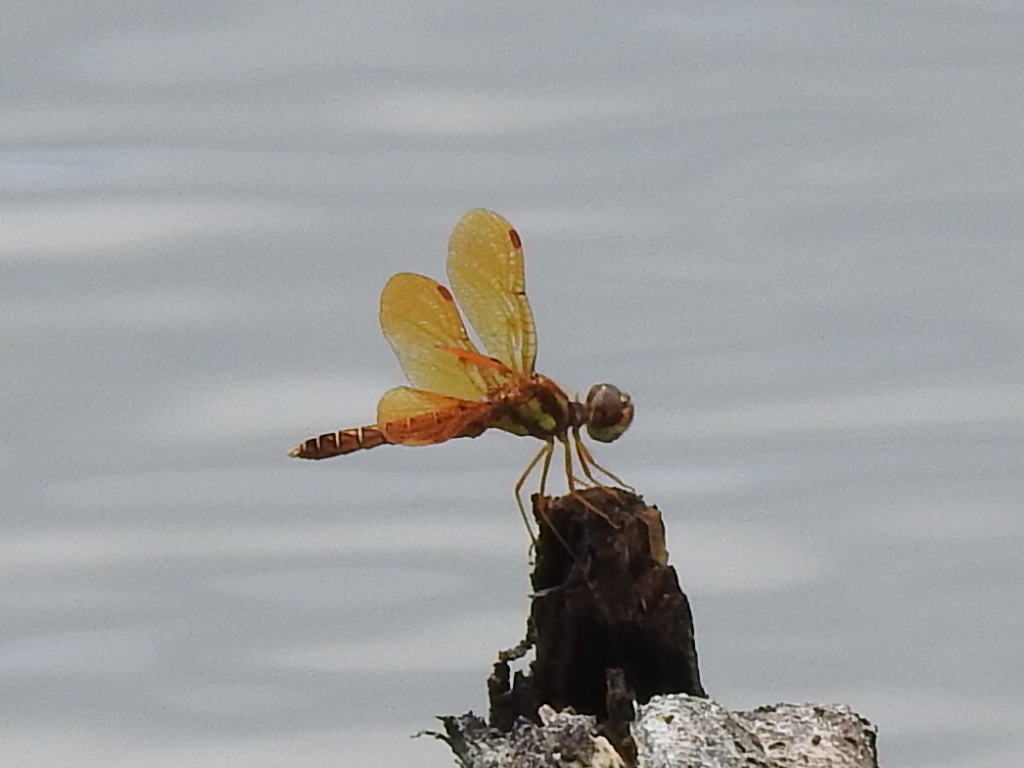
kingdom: Animalia
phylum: Arthropoda
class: Insecta
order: Odonata
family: Libellulidae
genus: Perithemis
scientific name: Perithemis tenera
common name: Eastern amberwing
